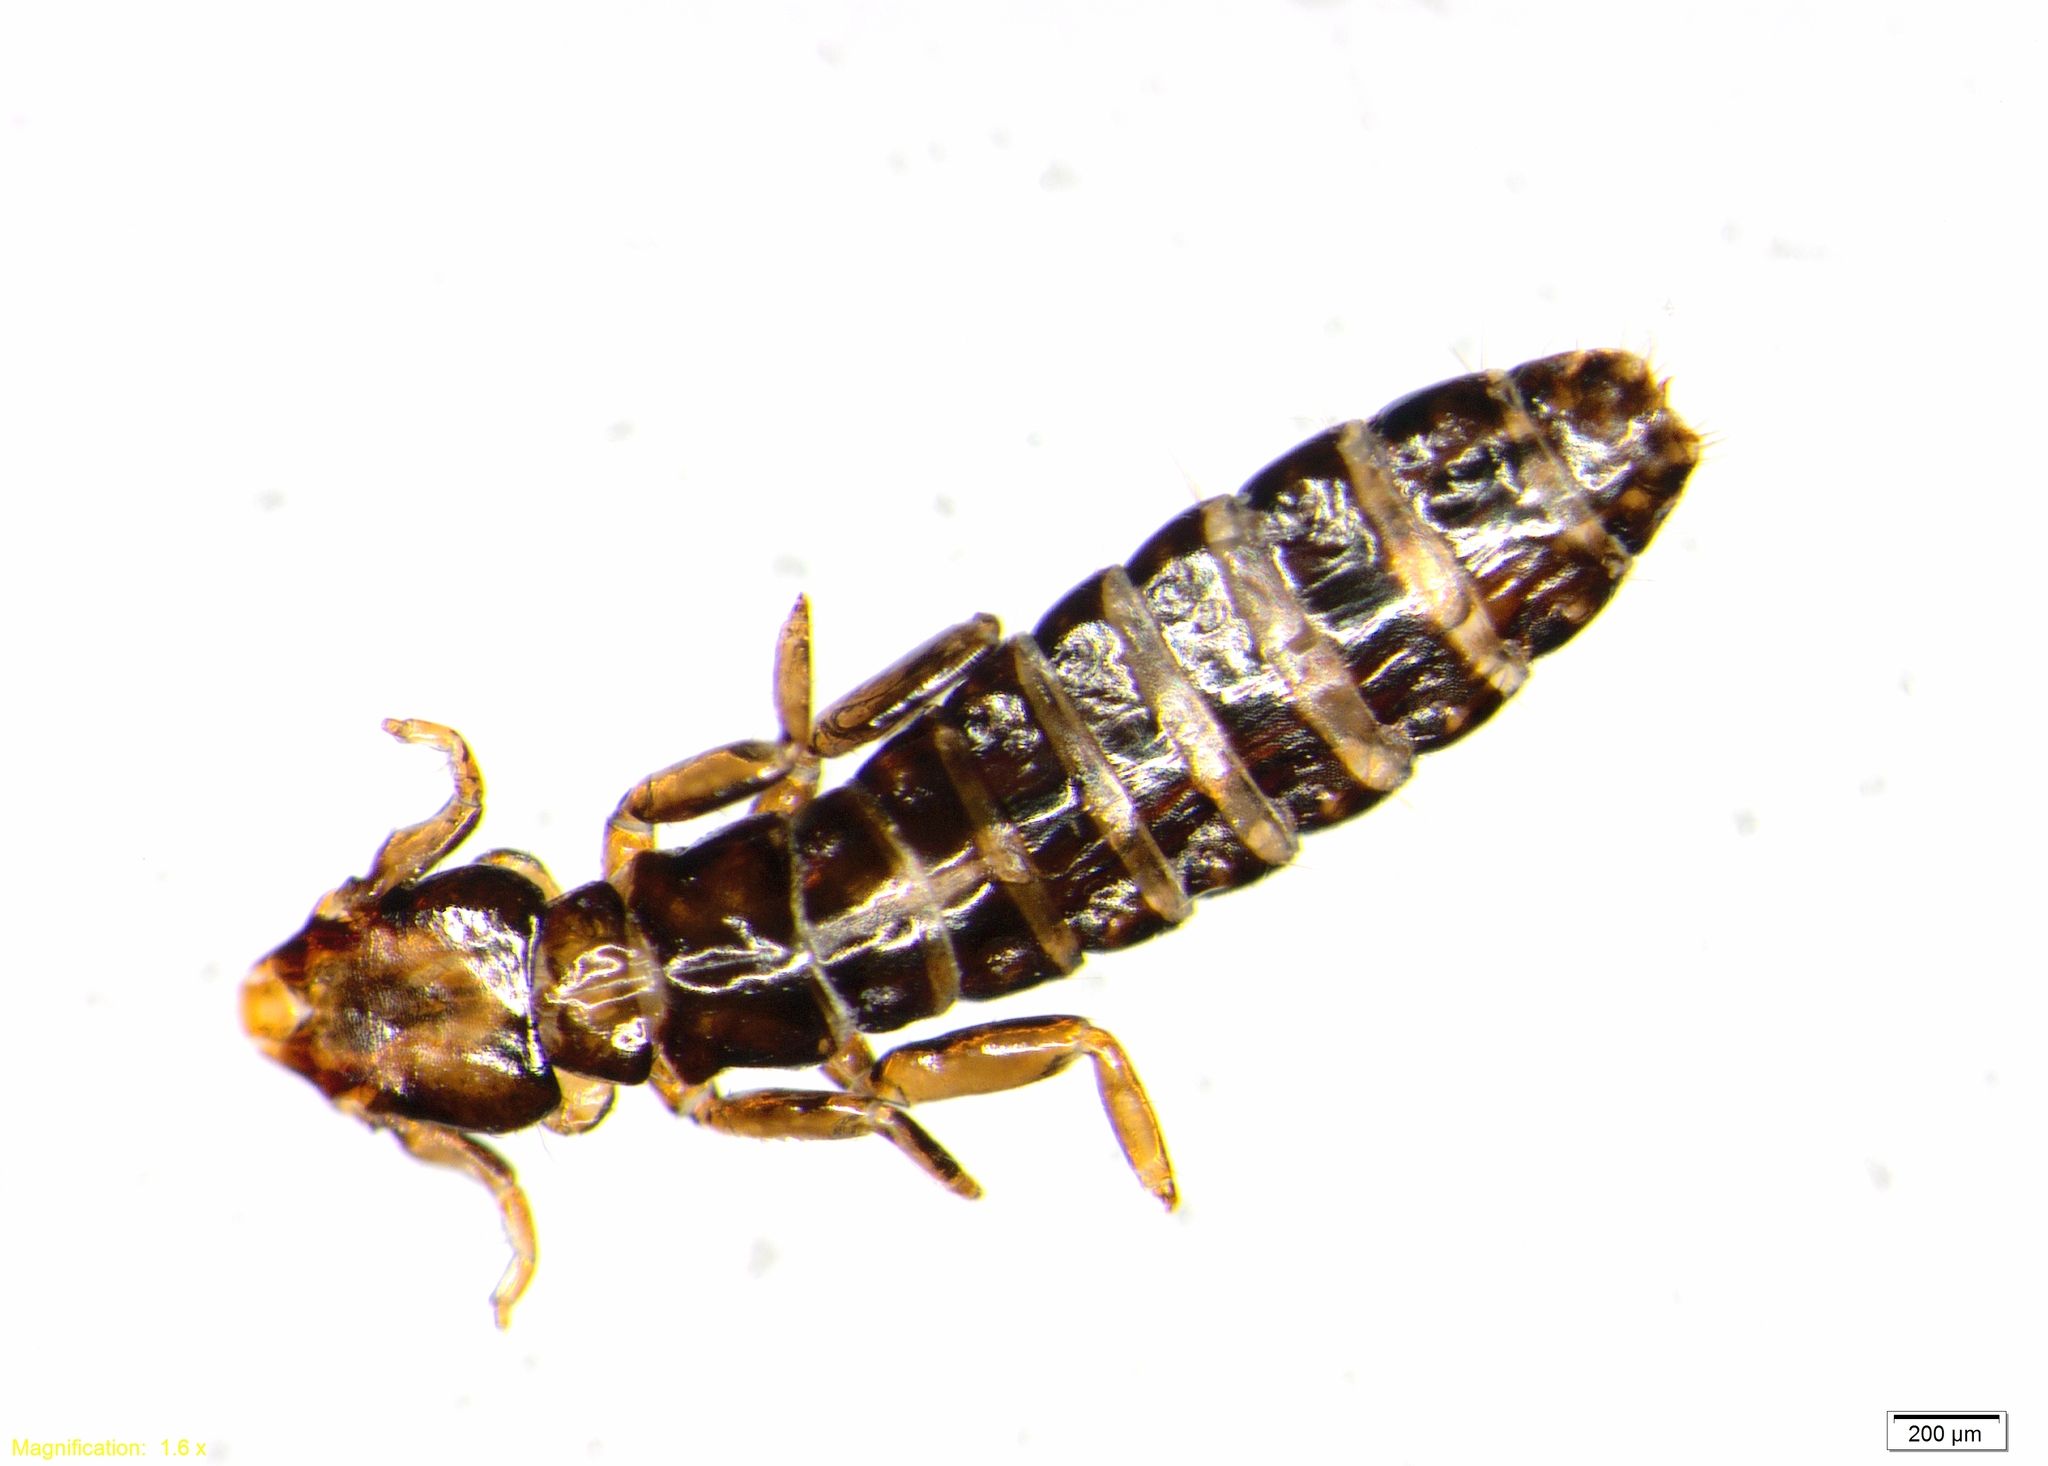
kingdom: Animalia
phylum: Arthropoda
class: Insecta
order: Psocodea
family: Philopteridae
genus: Pectinopygus
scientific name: Pectinopygus varius
